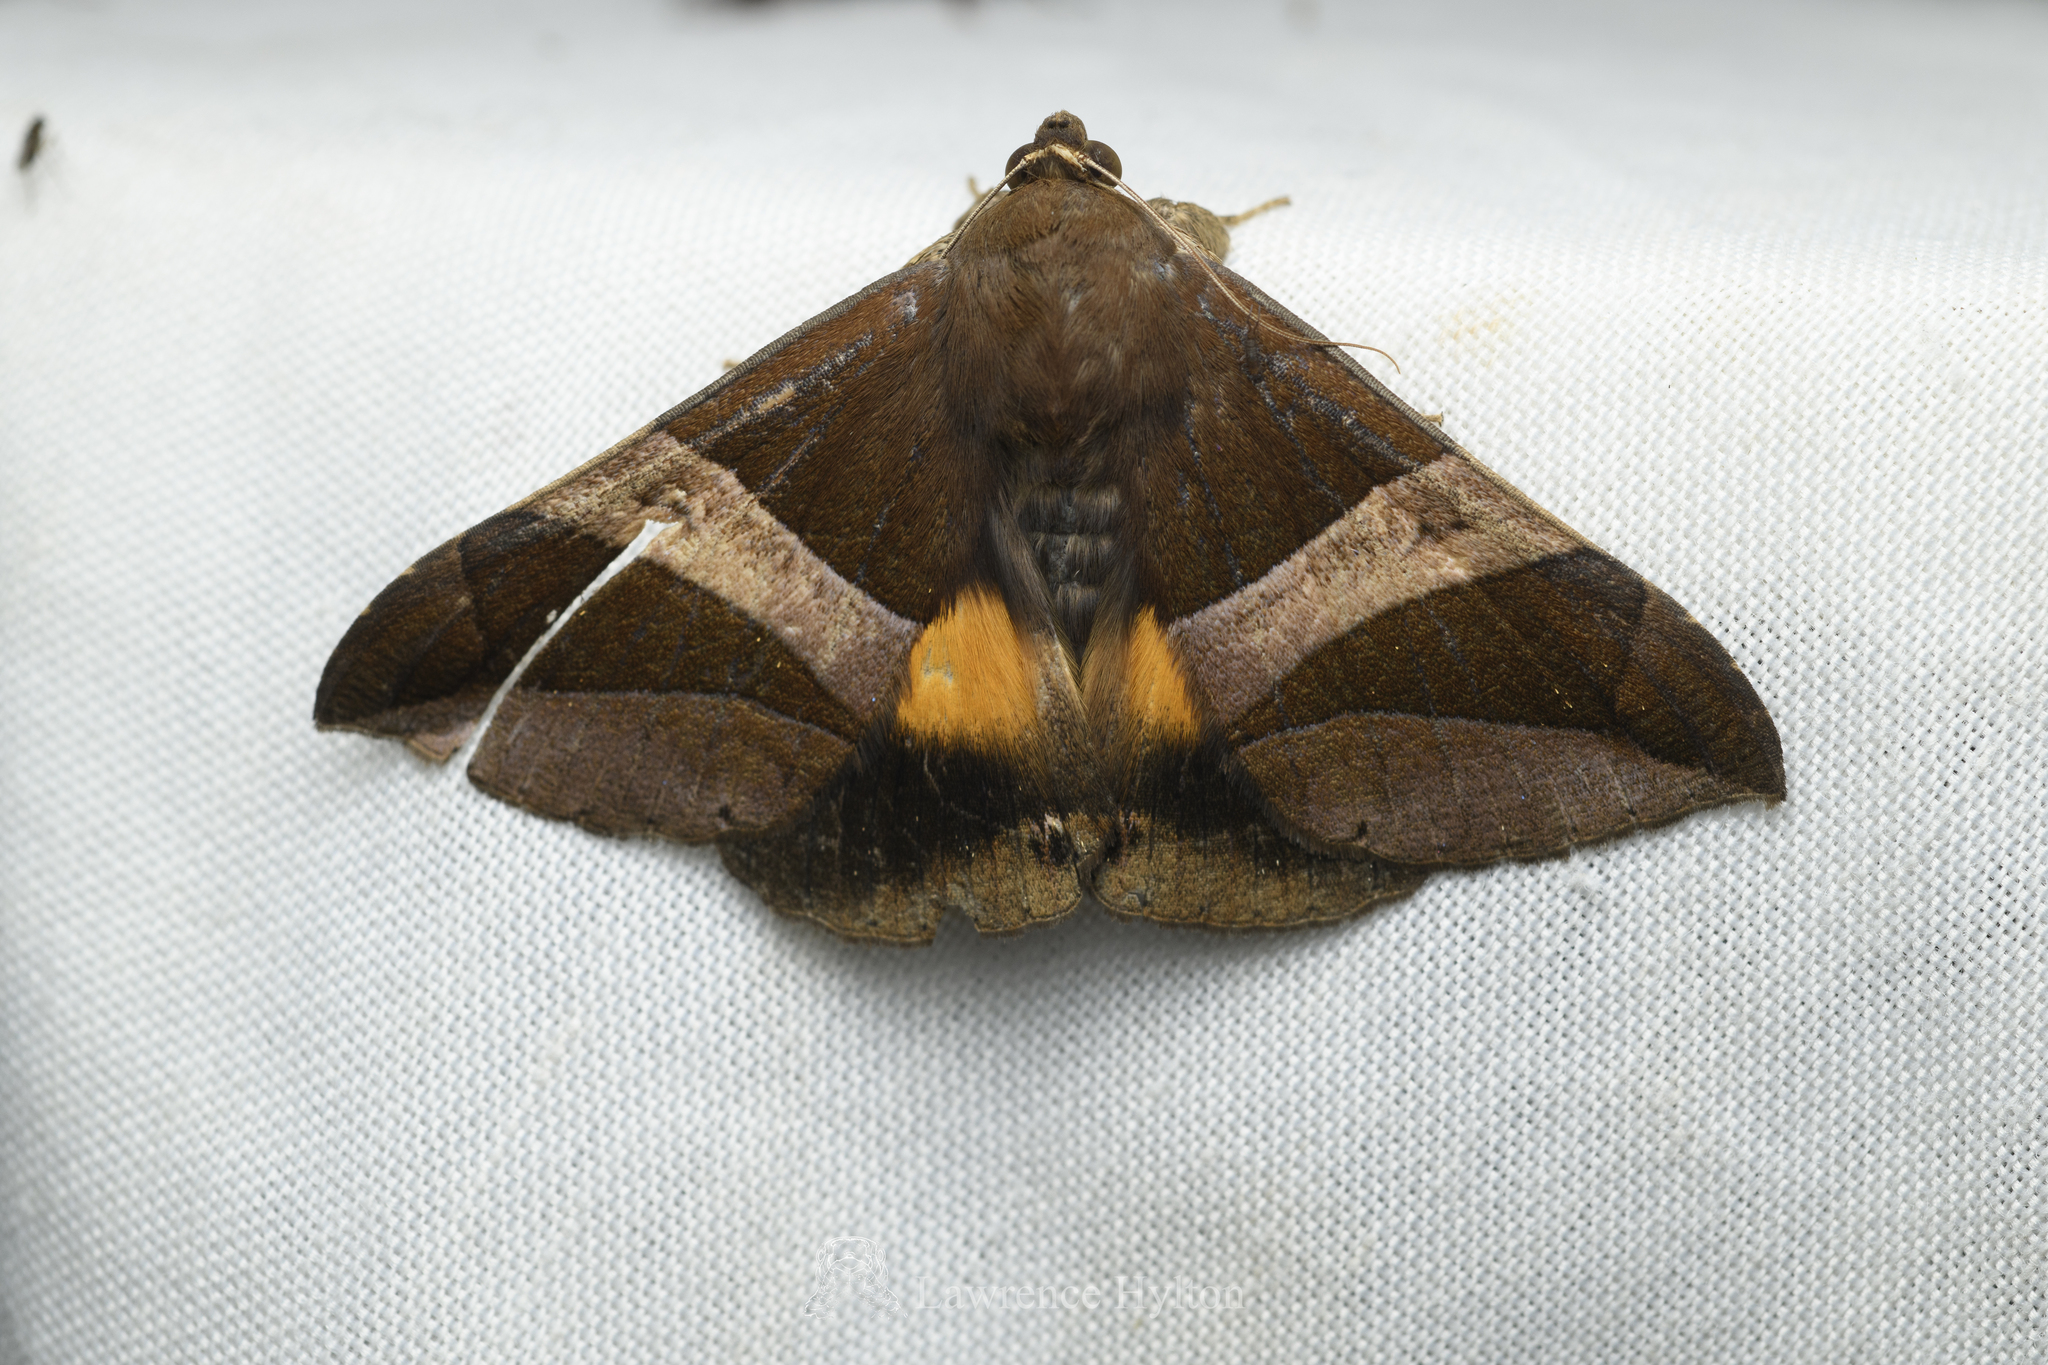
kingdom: Animalia
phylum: Arthropoda
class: Insecta
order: Lepidoptera
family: Erebidae
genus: Bastilla
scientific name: Bastilla fulvotaenia
